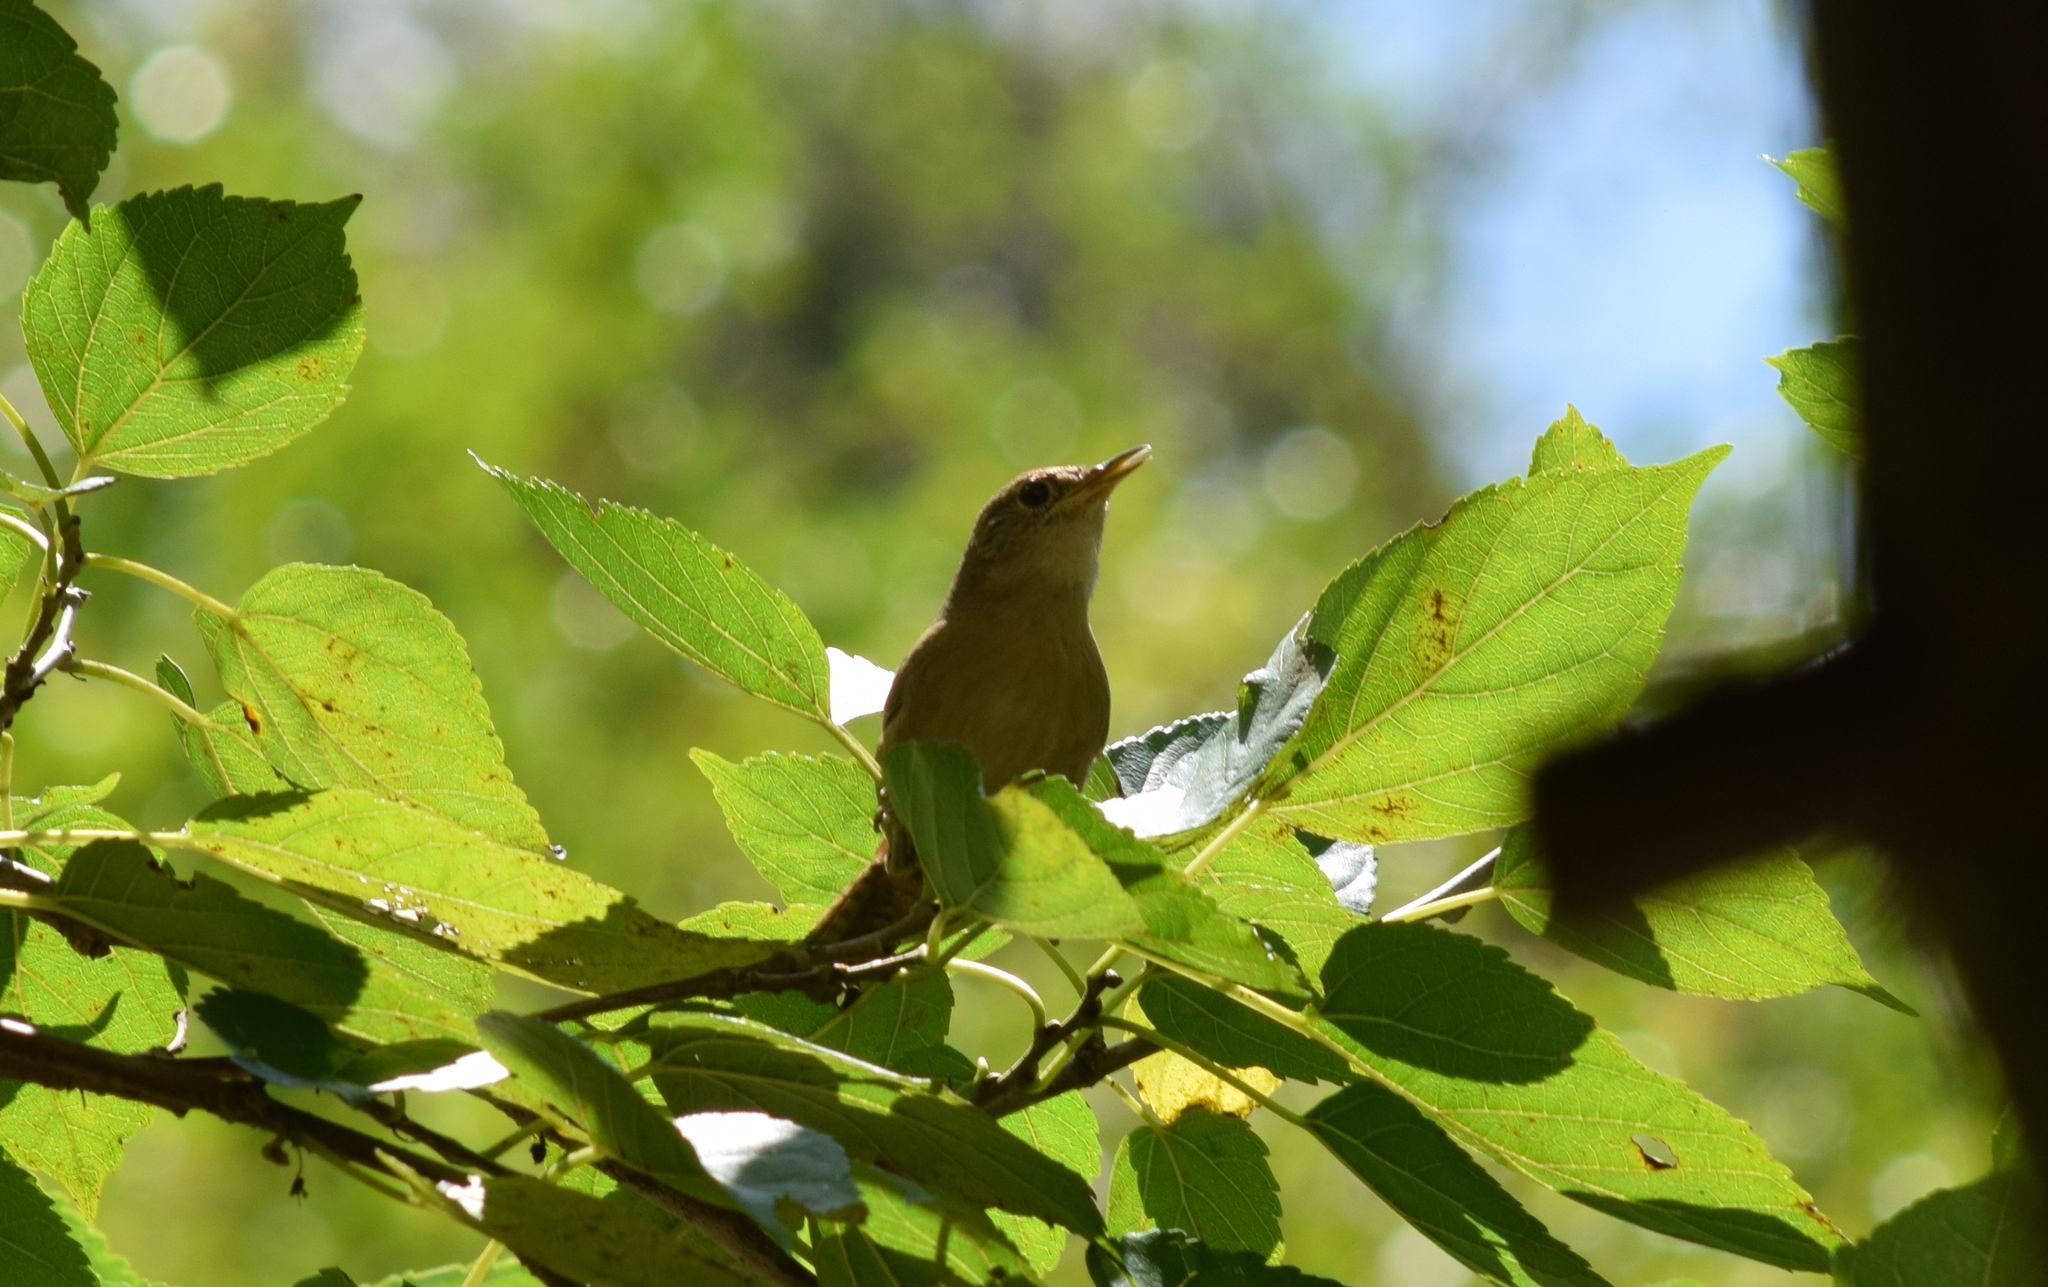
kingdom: Animalia
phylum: Chordata
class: Aves
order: Passeriformes
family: Troglodytidae
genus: Troglodytes
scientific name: Troglodytes aedon
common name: House wren
